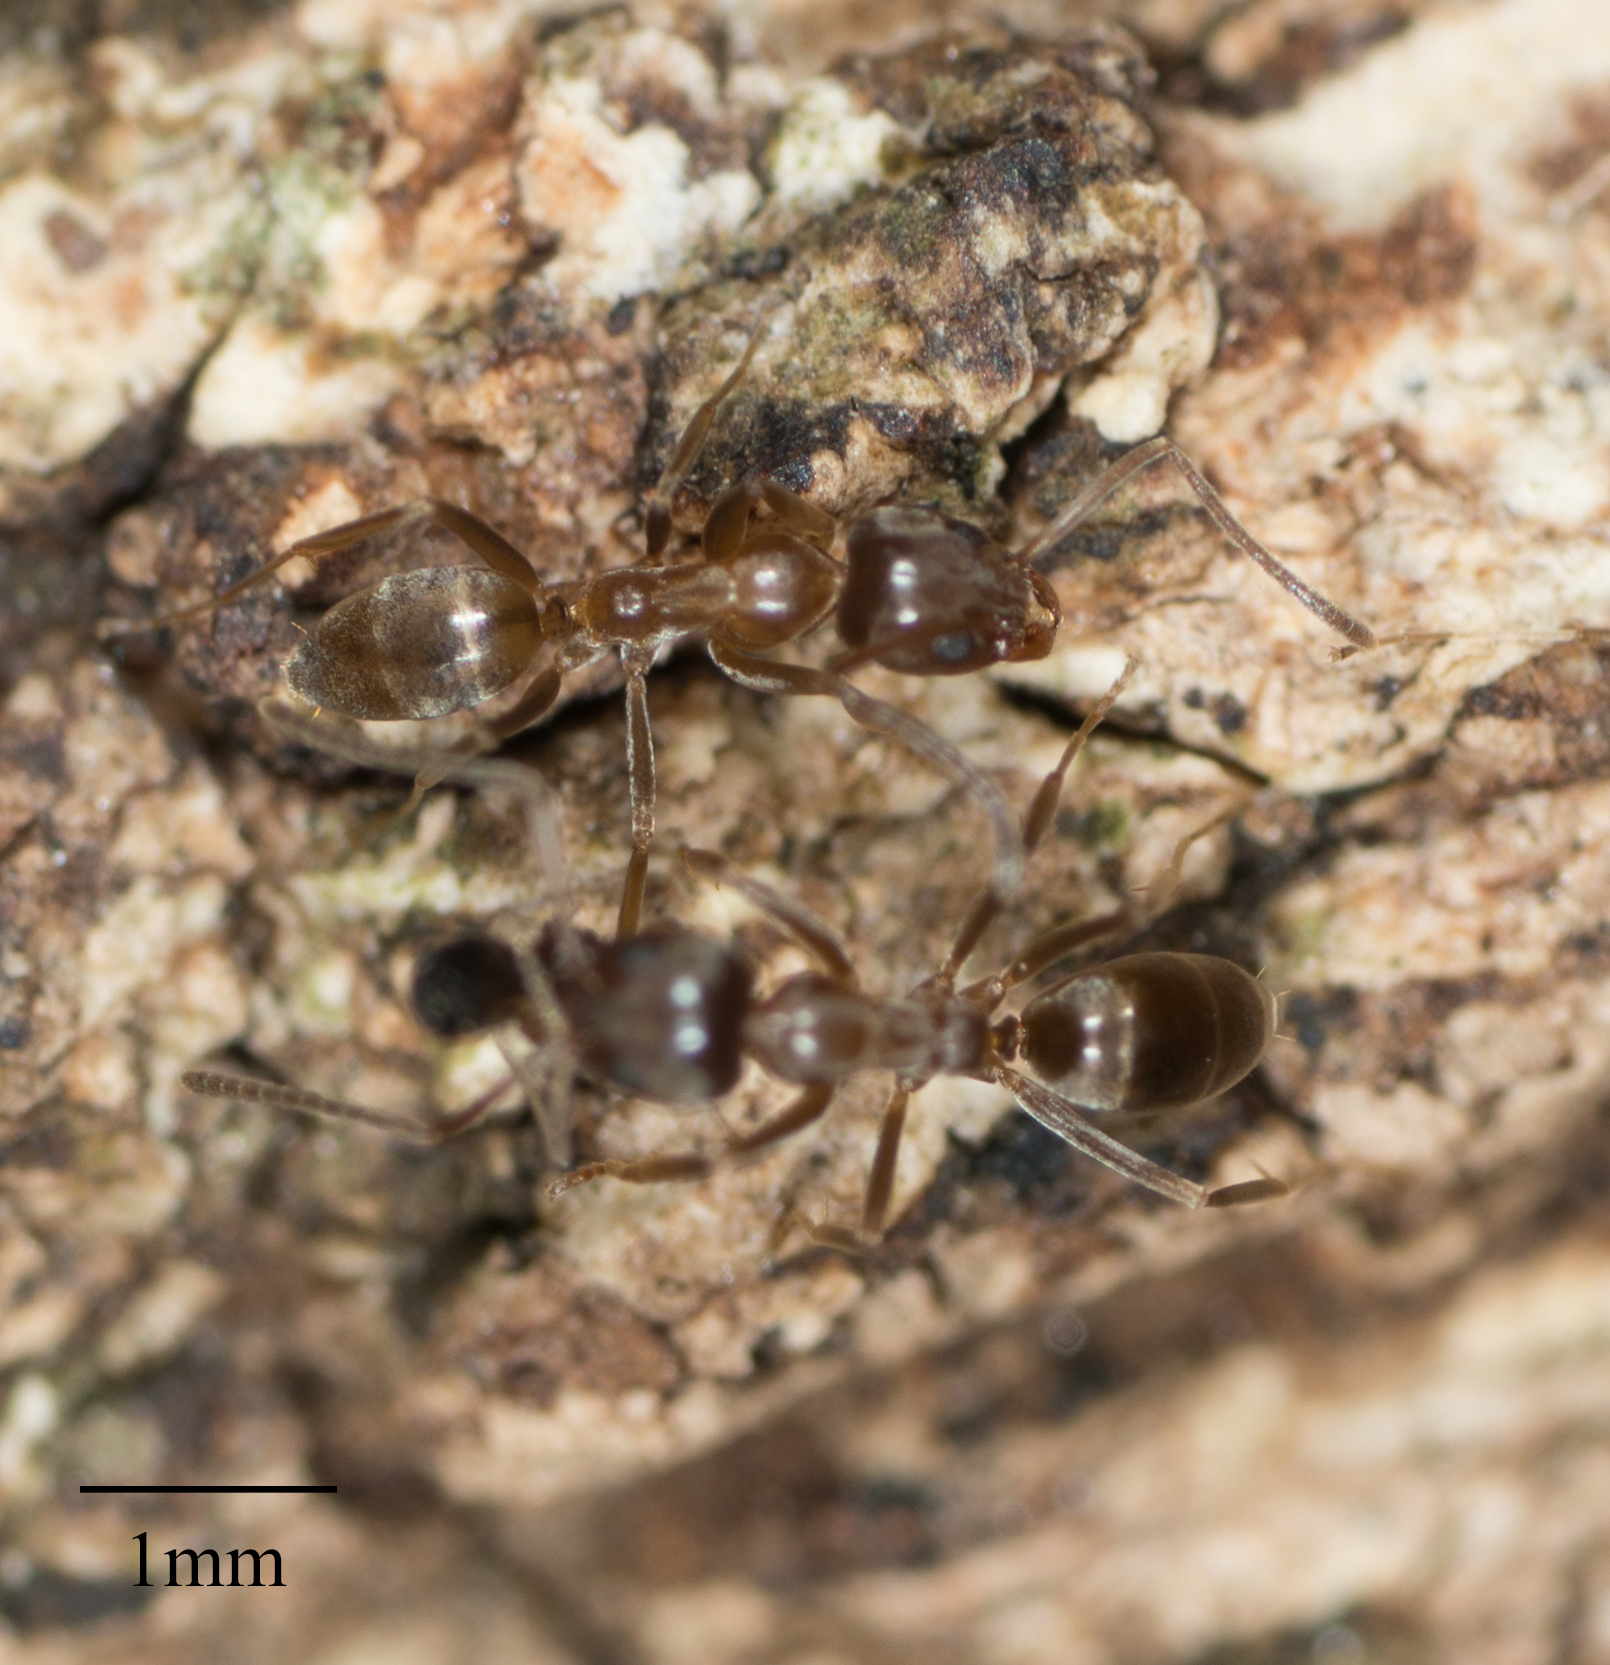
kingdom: Animalia
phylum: Arthropoda
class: Insecta
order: Hymenoptera
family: Formicidae
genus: Linepithema
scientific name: Linepithema humile
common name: Argentine ant
